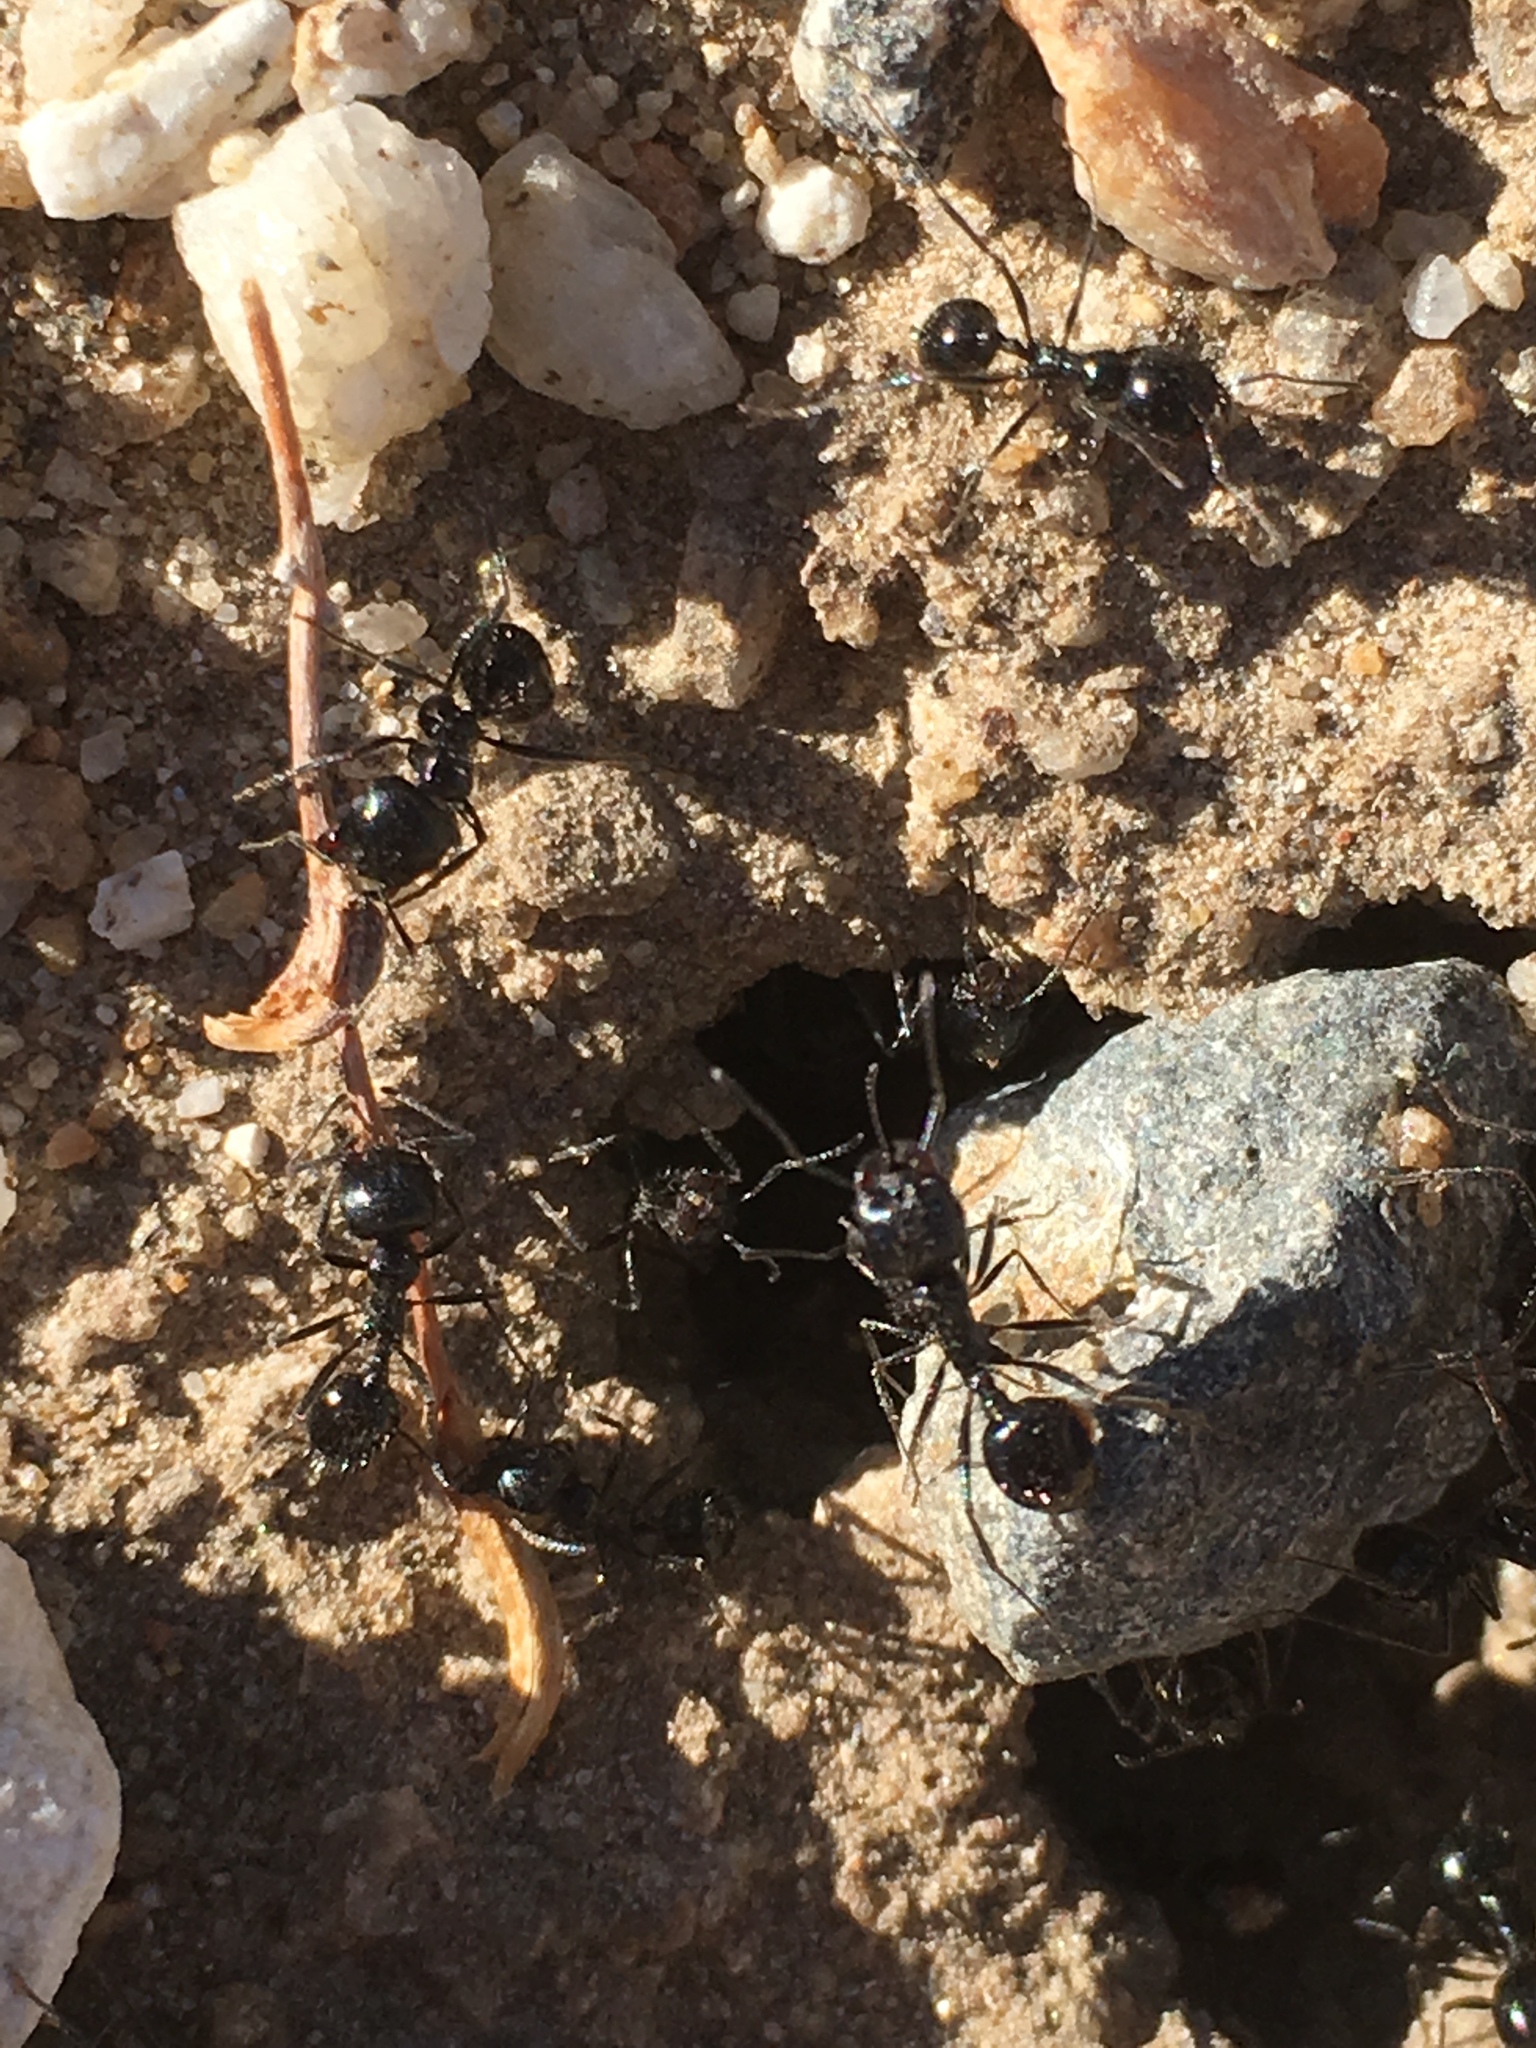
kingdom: Animalia
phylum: Arthropoda
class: Insecta
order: Hymenoptera
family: Formicidae
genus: Messor
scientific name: Messor pergandei
